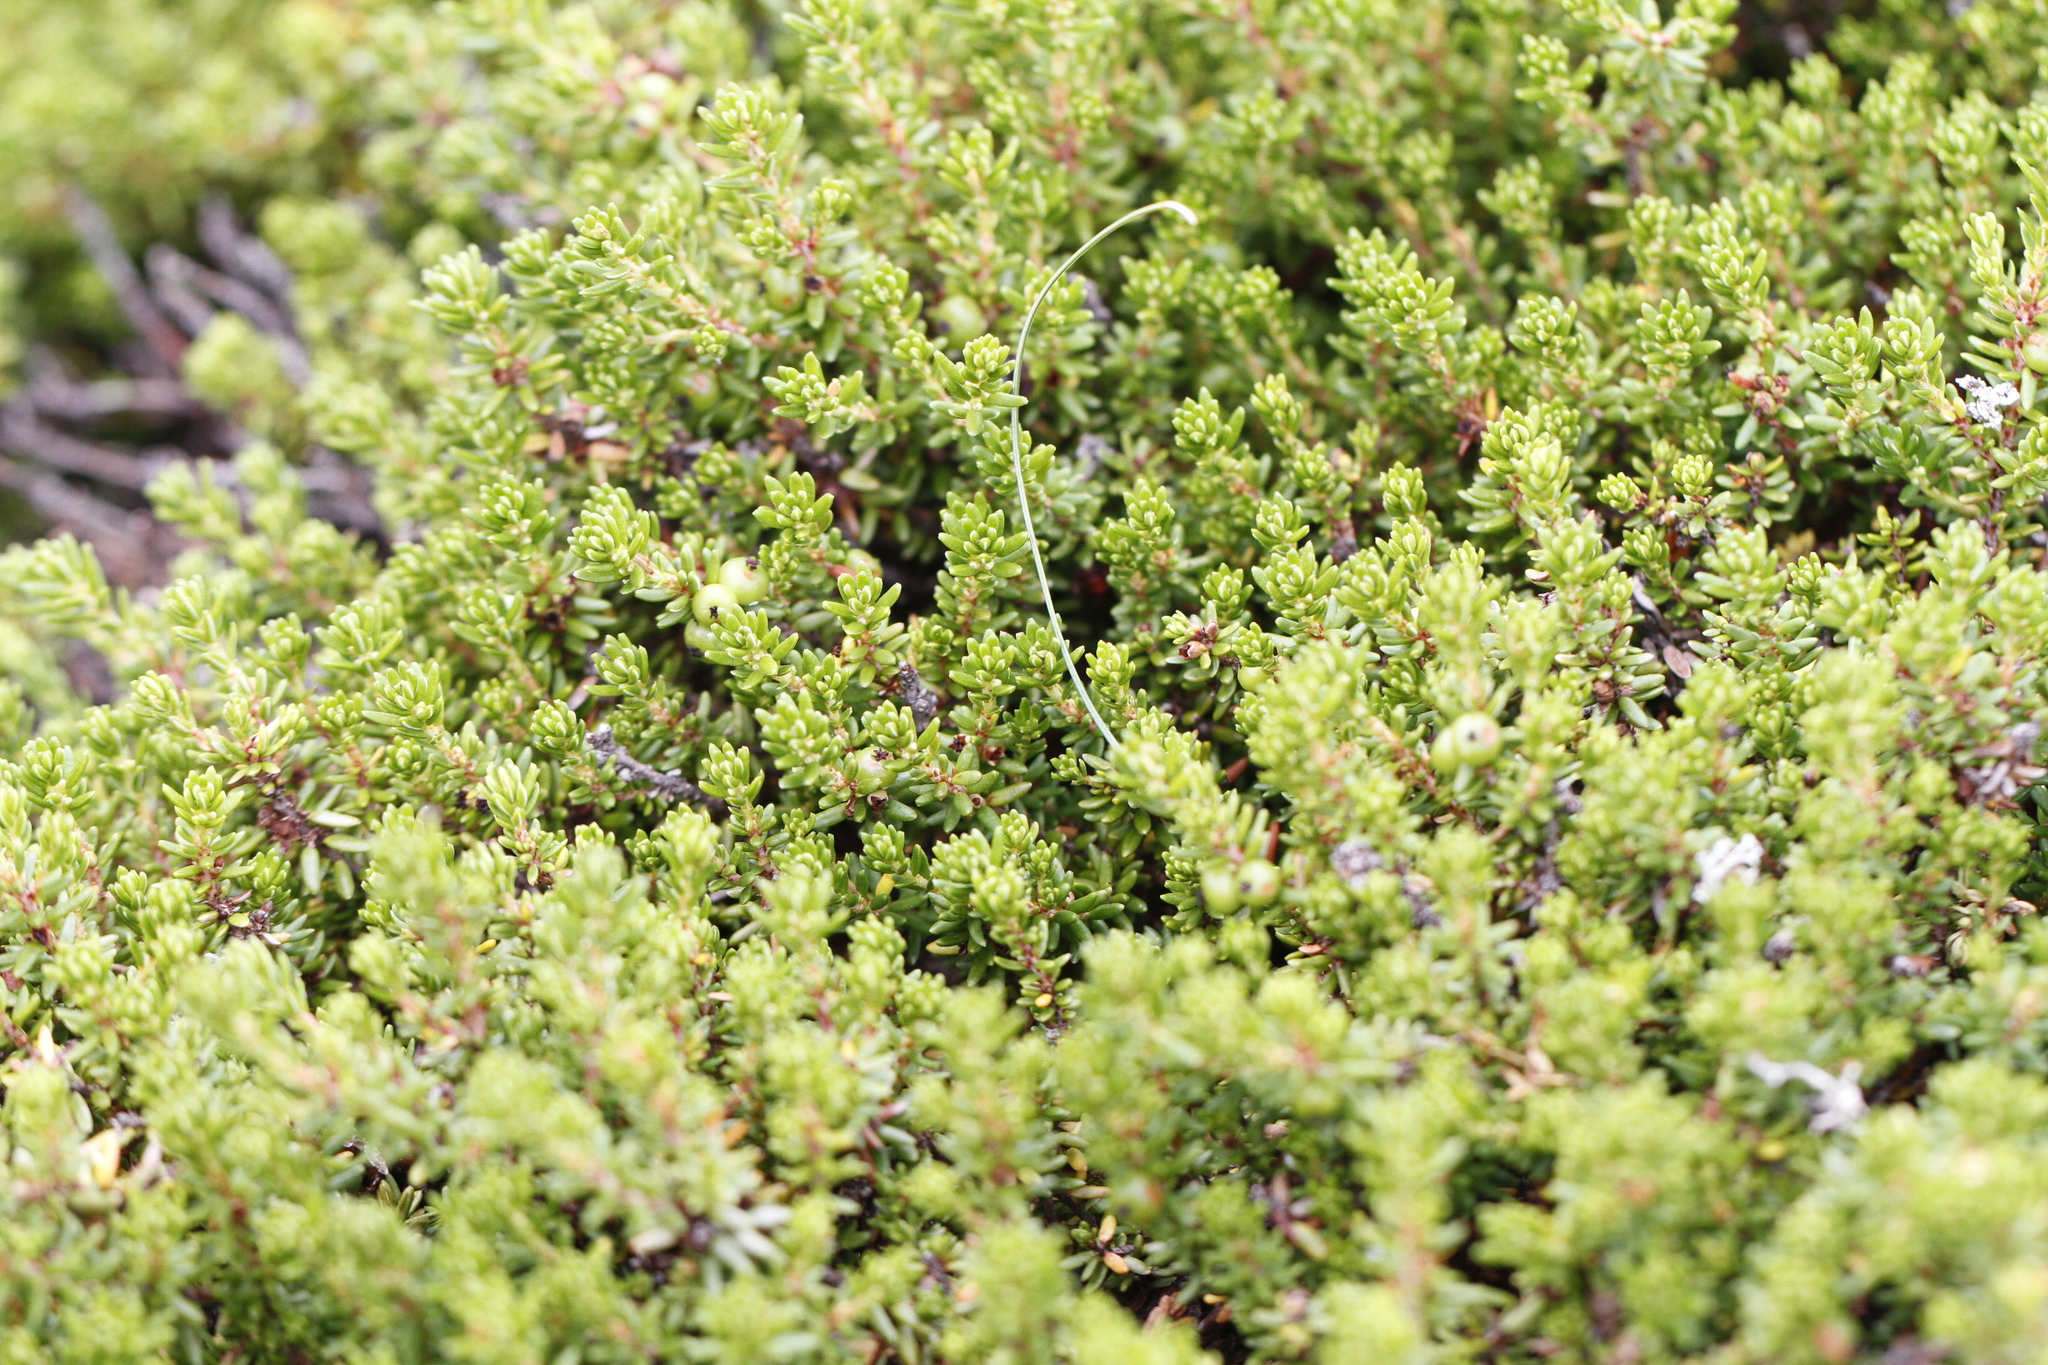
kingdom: Plantae
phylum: Tracheophyta
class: Magnoliopsida
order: Ericales
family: Ericaceae
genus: Empetrum
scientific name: Empetrum nigrum
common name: Black crowberry
